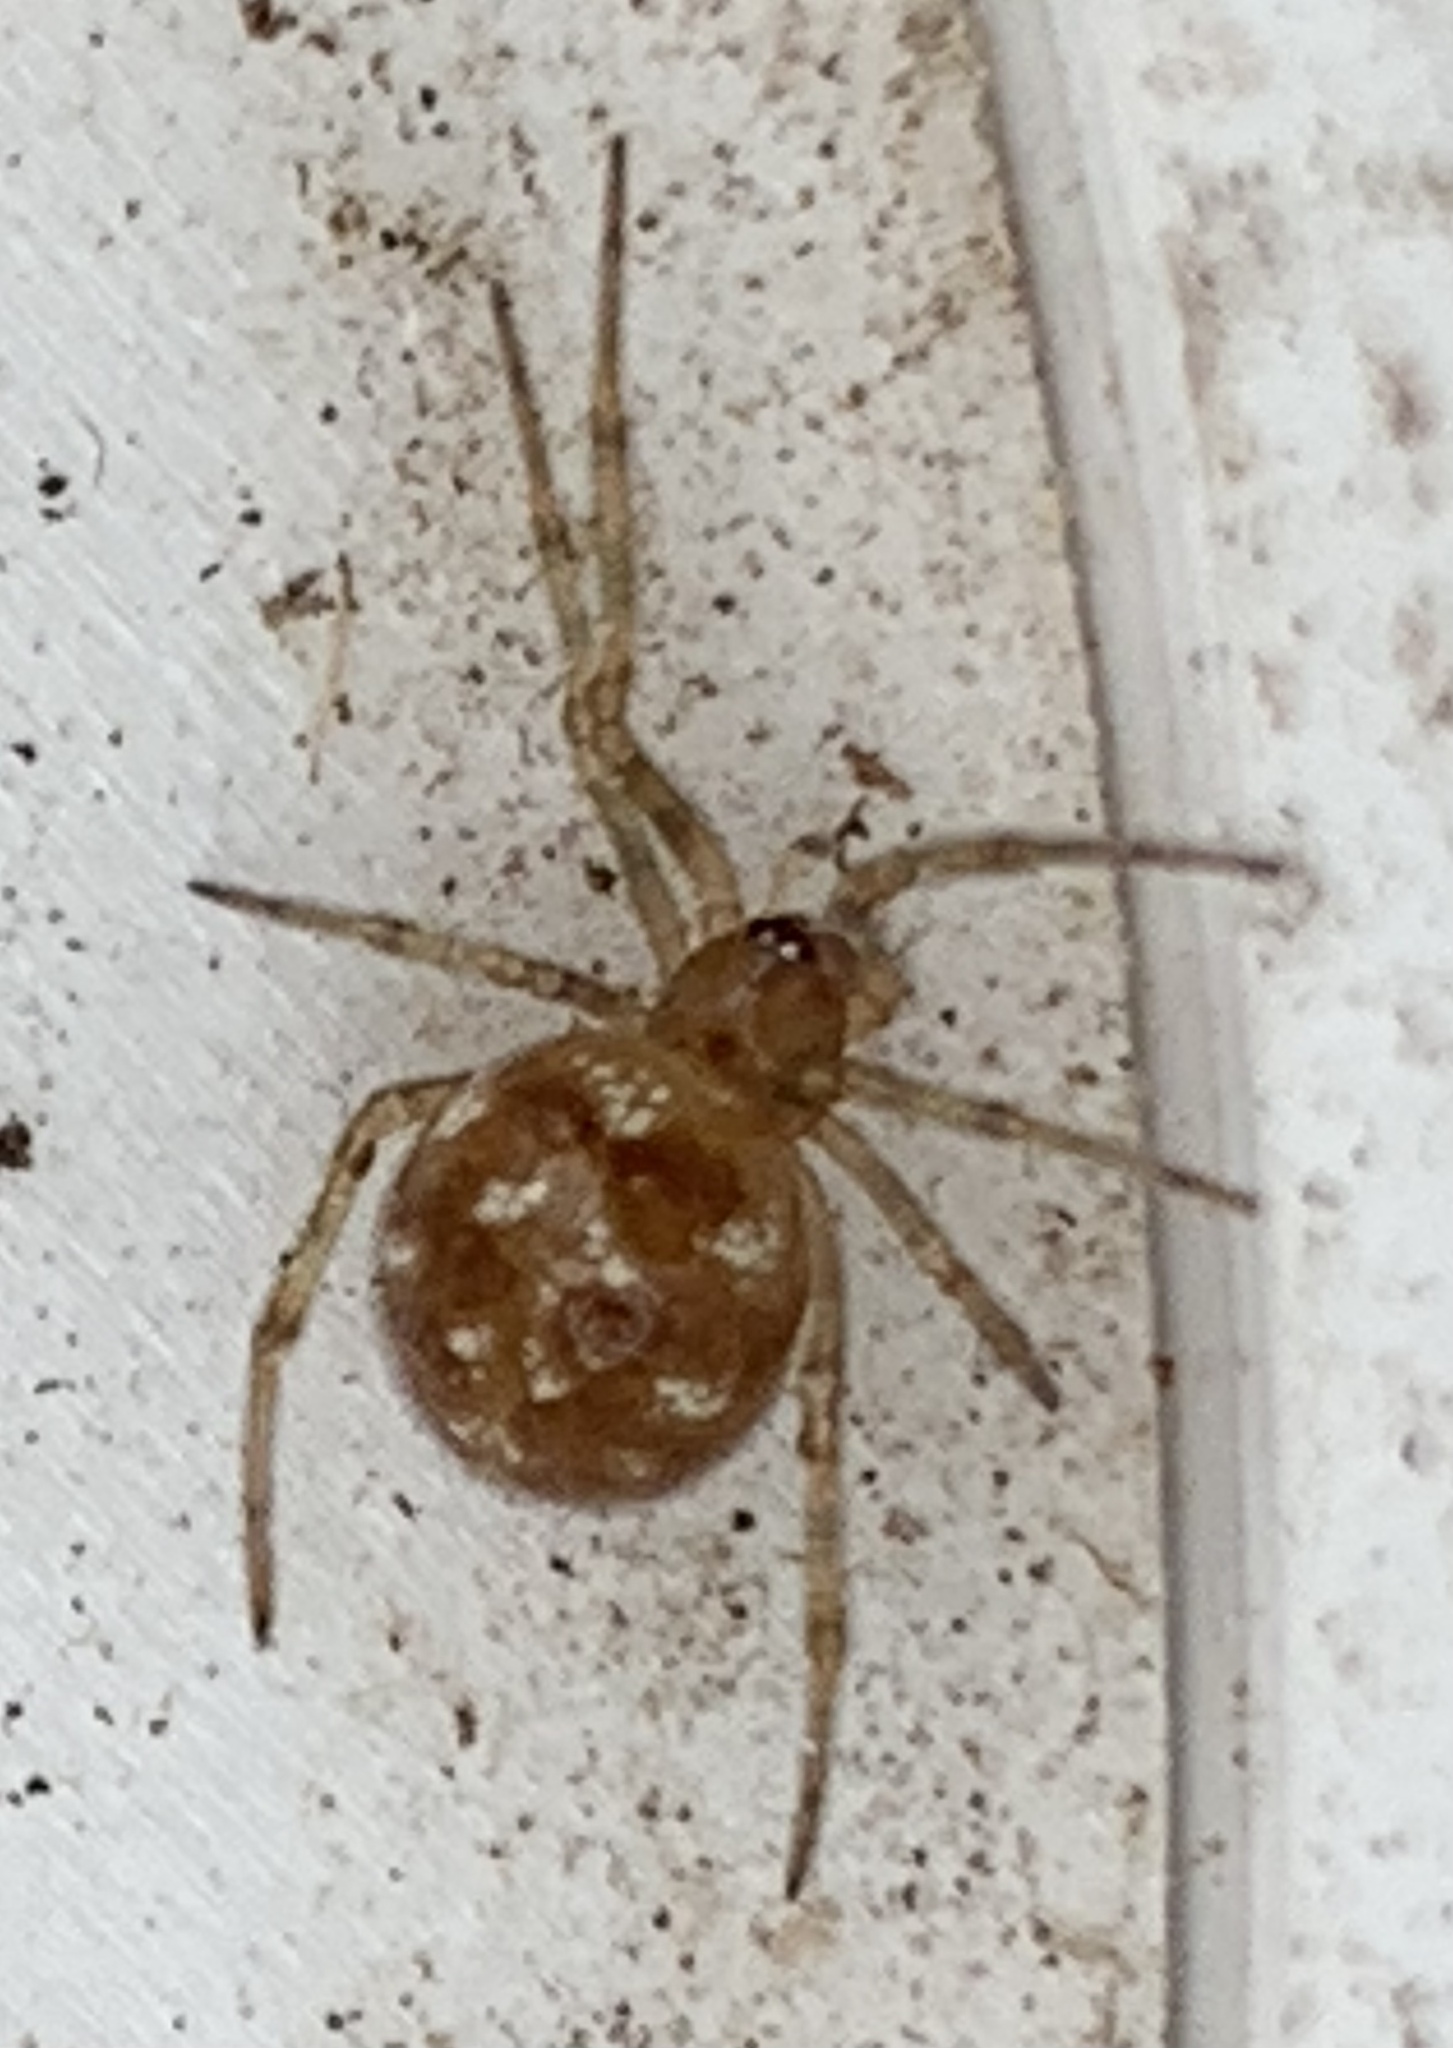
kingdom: Animalia
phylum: Arthropoda
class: Arachnida
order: Araneae
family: Theridiidae
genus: Steatoda
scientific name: Steatoda triangulosa
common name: Triangulate bud spider
